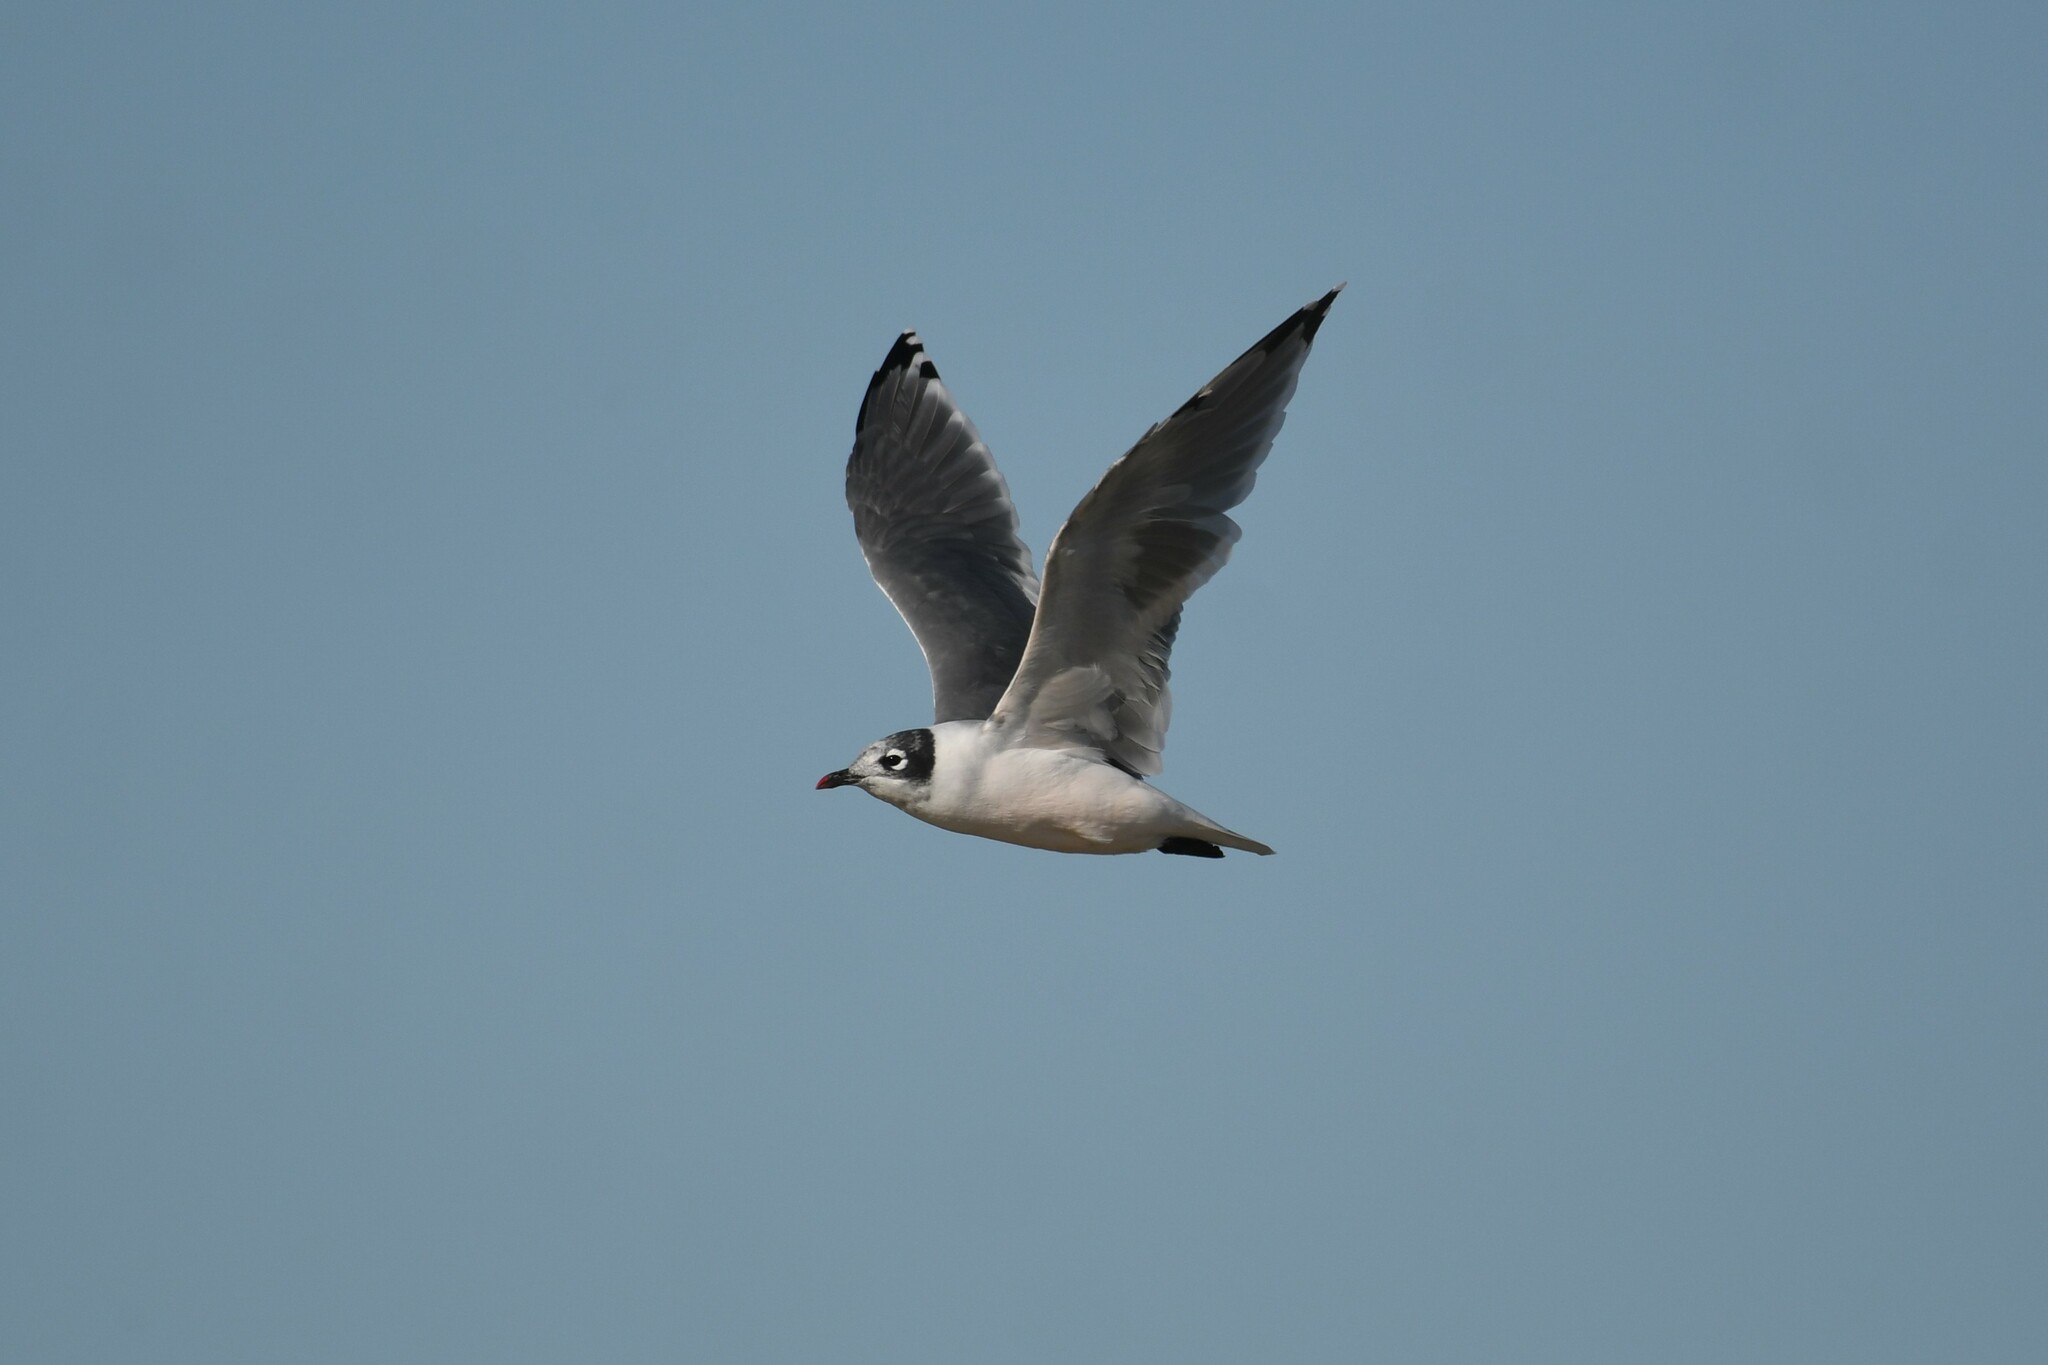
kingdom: Animalia
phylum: Chordata
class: Aves
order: Charadriiformes
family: Laridae
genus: Leucophaeus
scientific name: Leucophaeus pipixcan
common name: Franklin's gull
